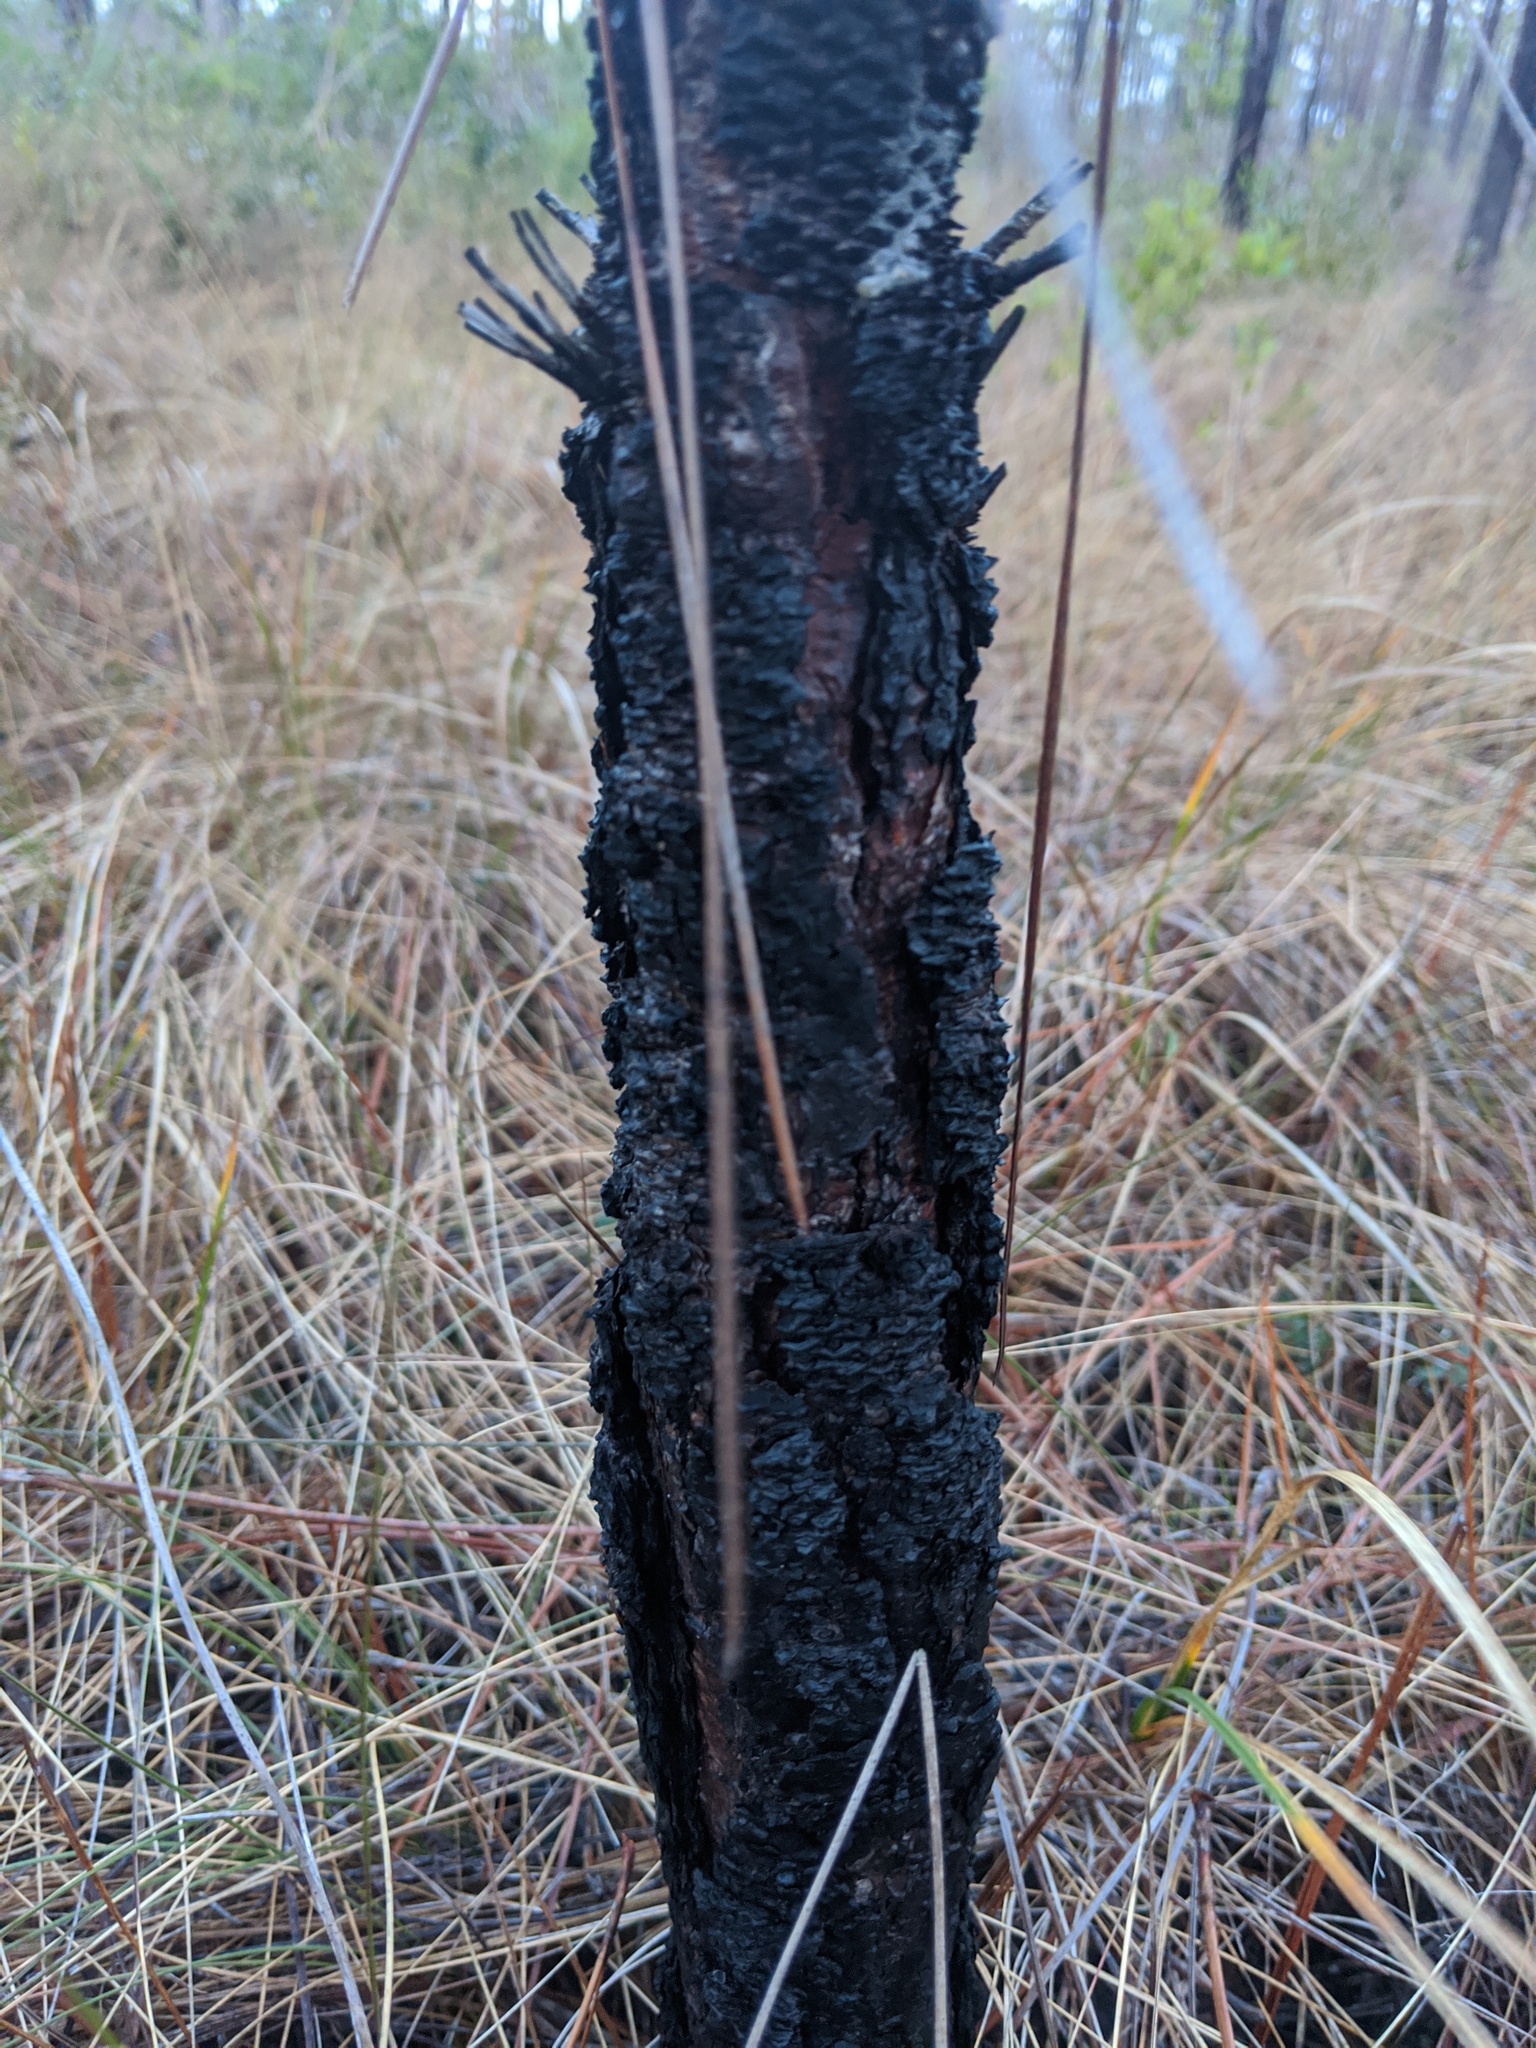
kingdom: Plantae
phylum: Tracheophyta
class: Pinopsida
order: Pinales
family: Pinaceae
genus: Pinus
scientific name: Pinus palustris
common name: Longleaf pine
